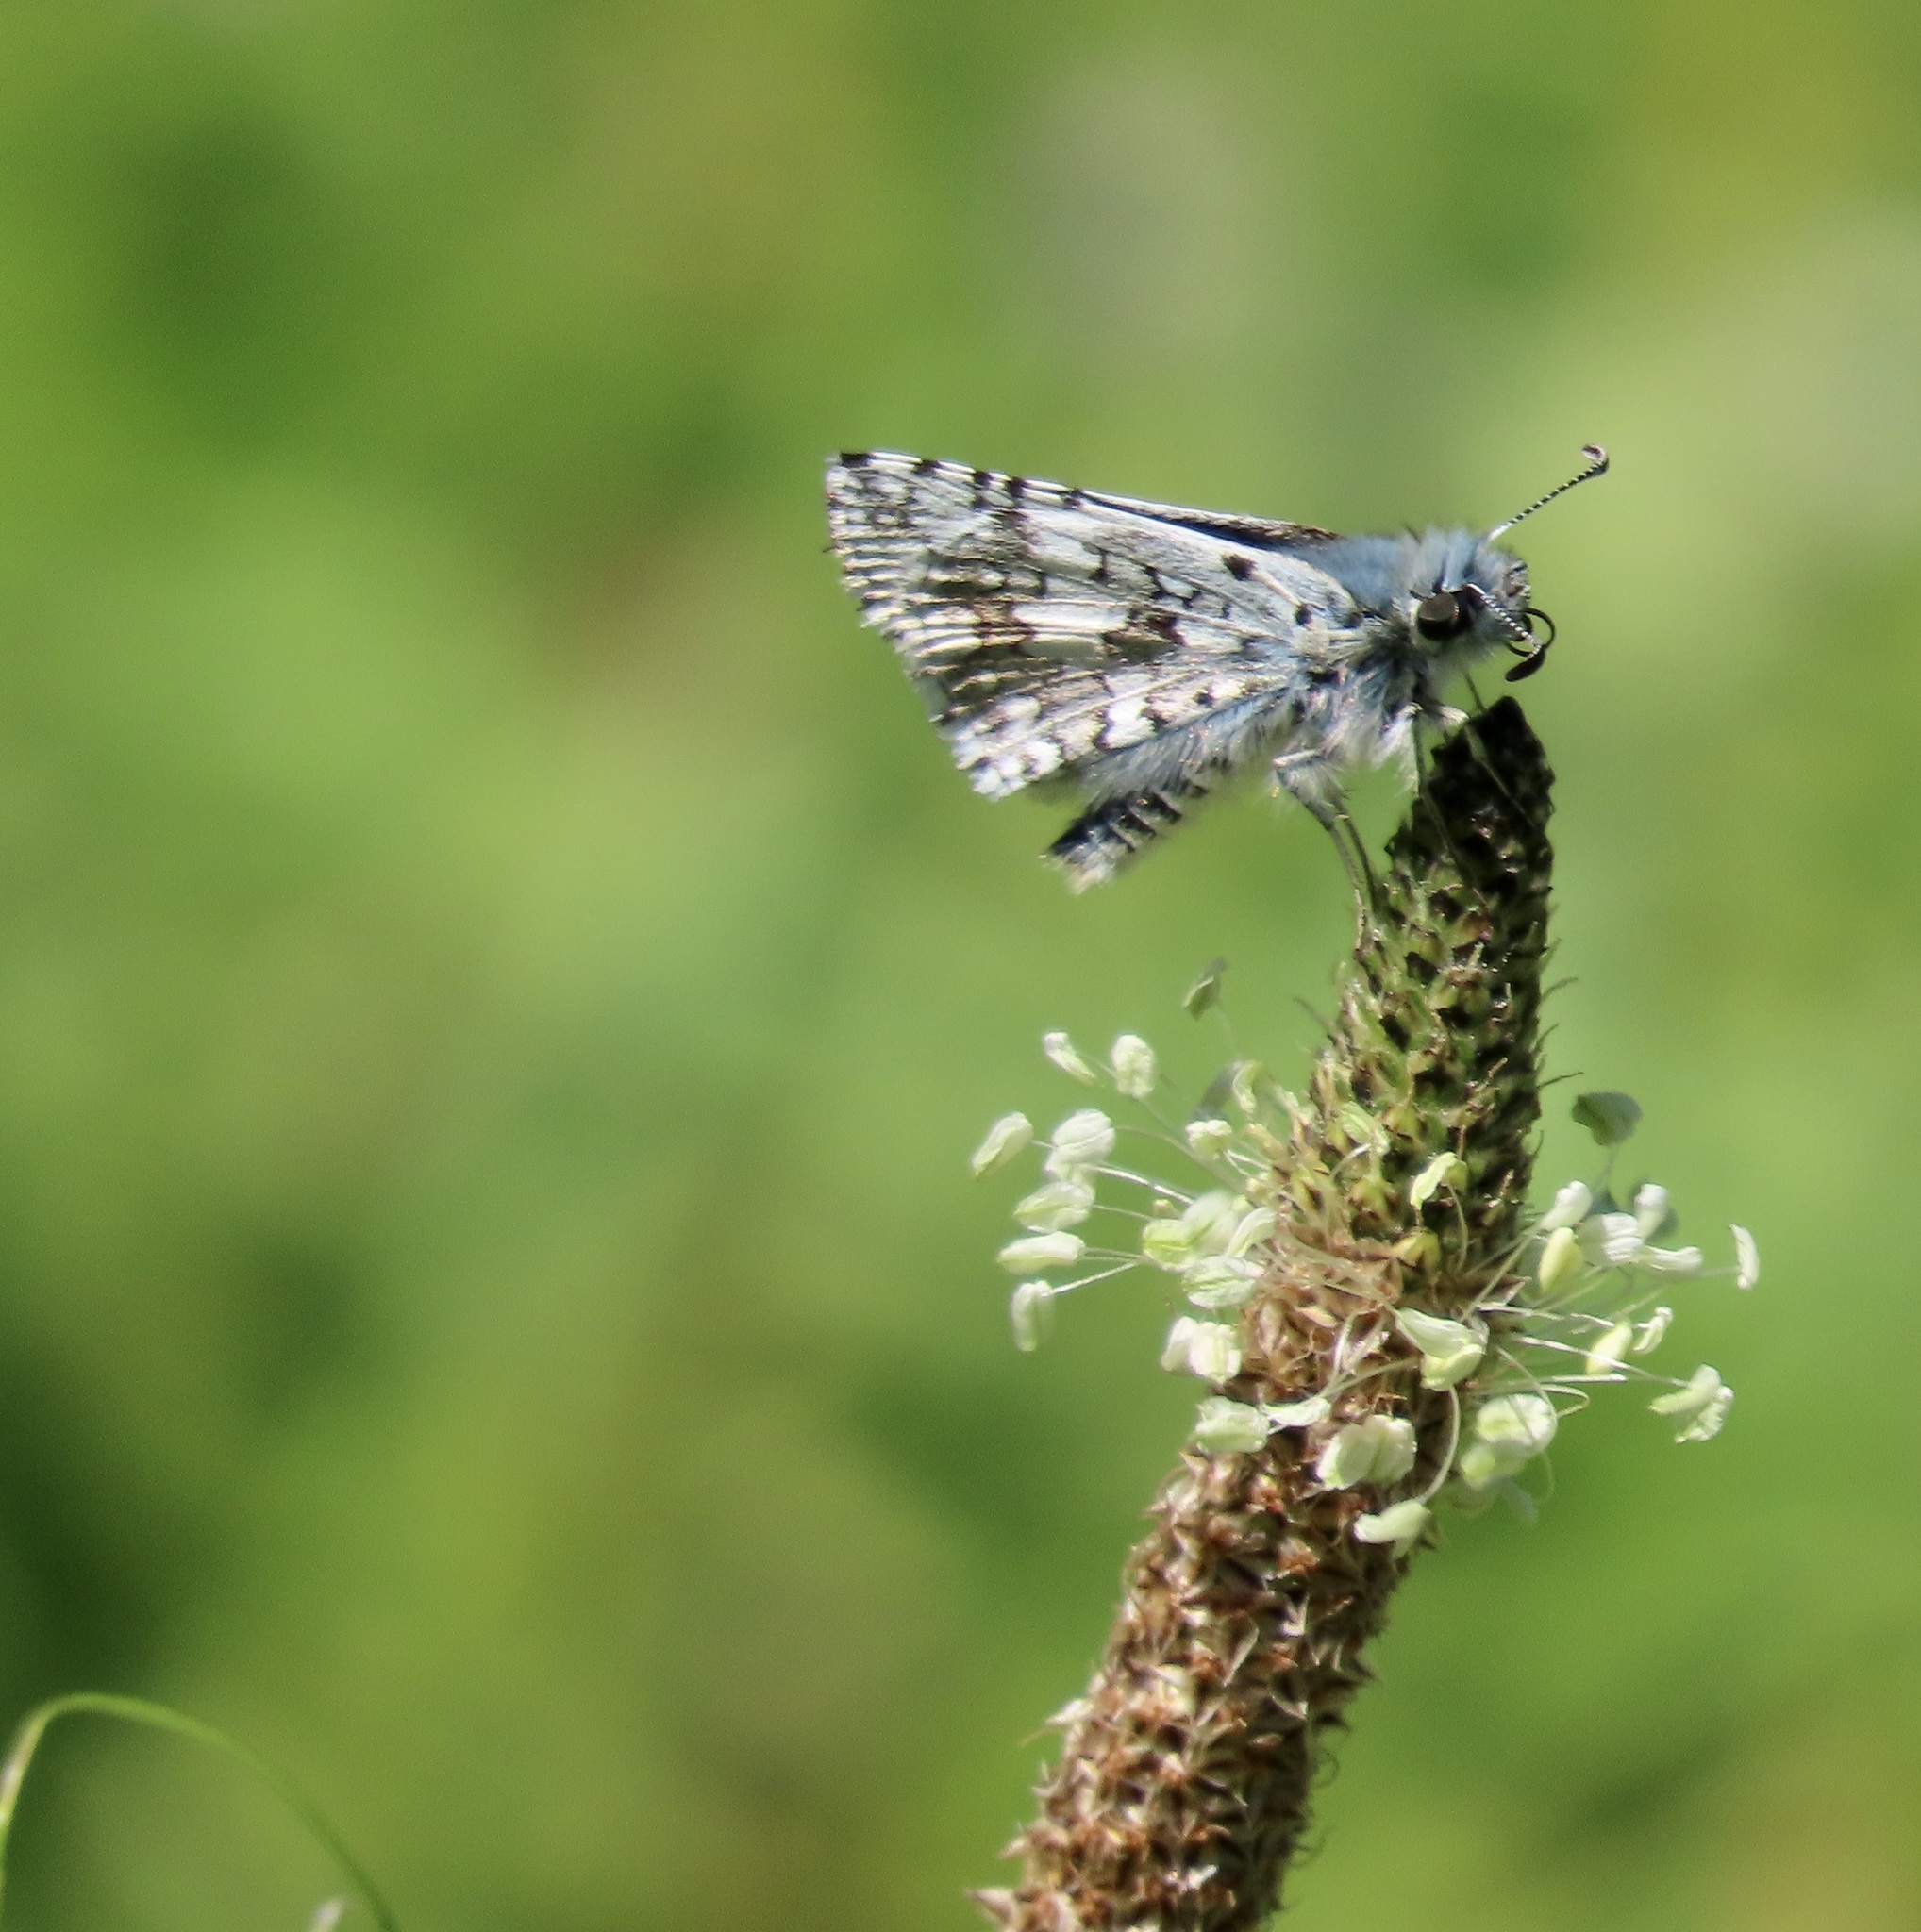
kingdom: Animalia
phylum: Arthropoda
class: Insecta
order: Lepidoptera
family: Hesperiidae
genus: Burnsius
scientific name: Burnsius communis
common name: Common checkered-skipper
